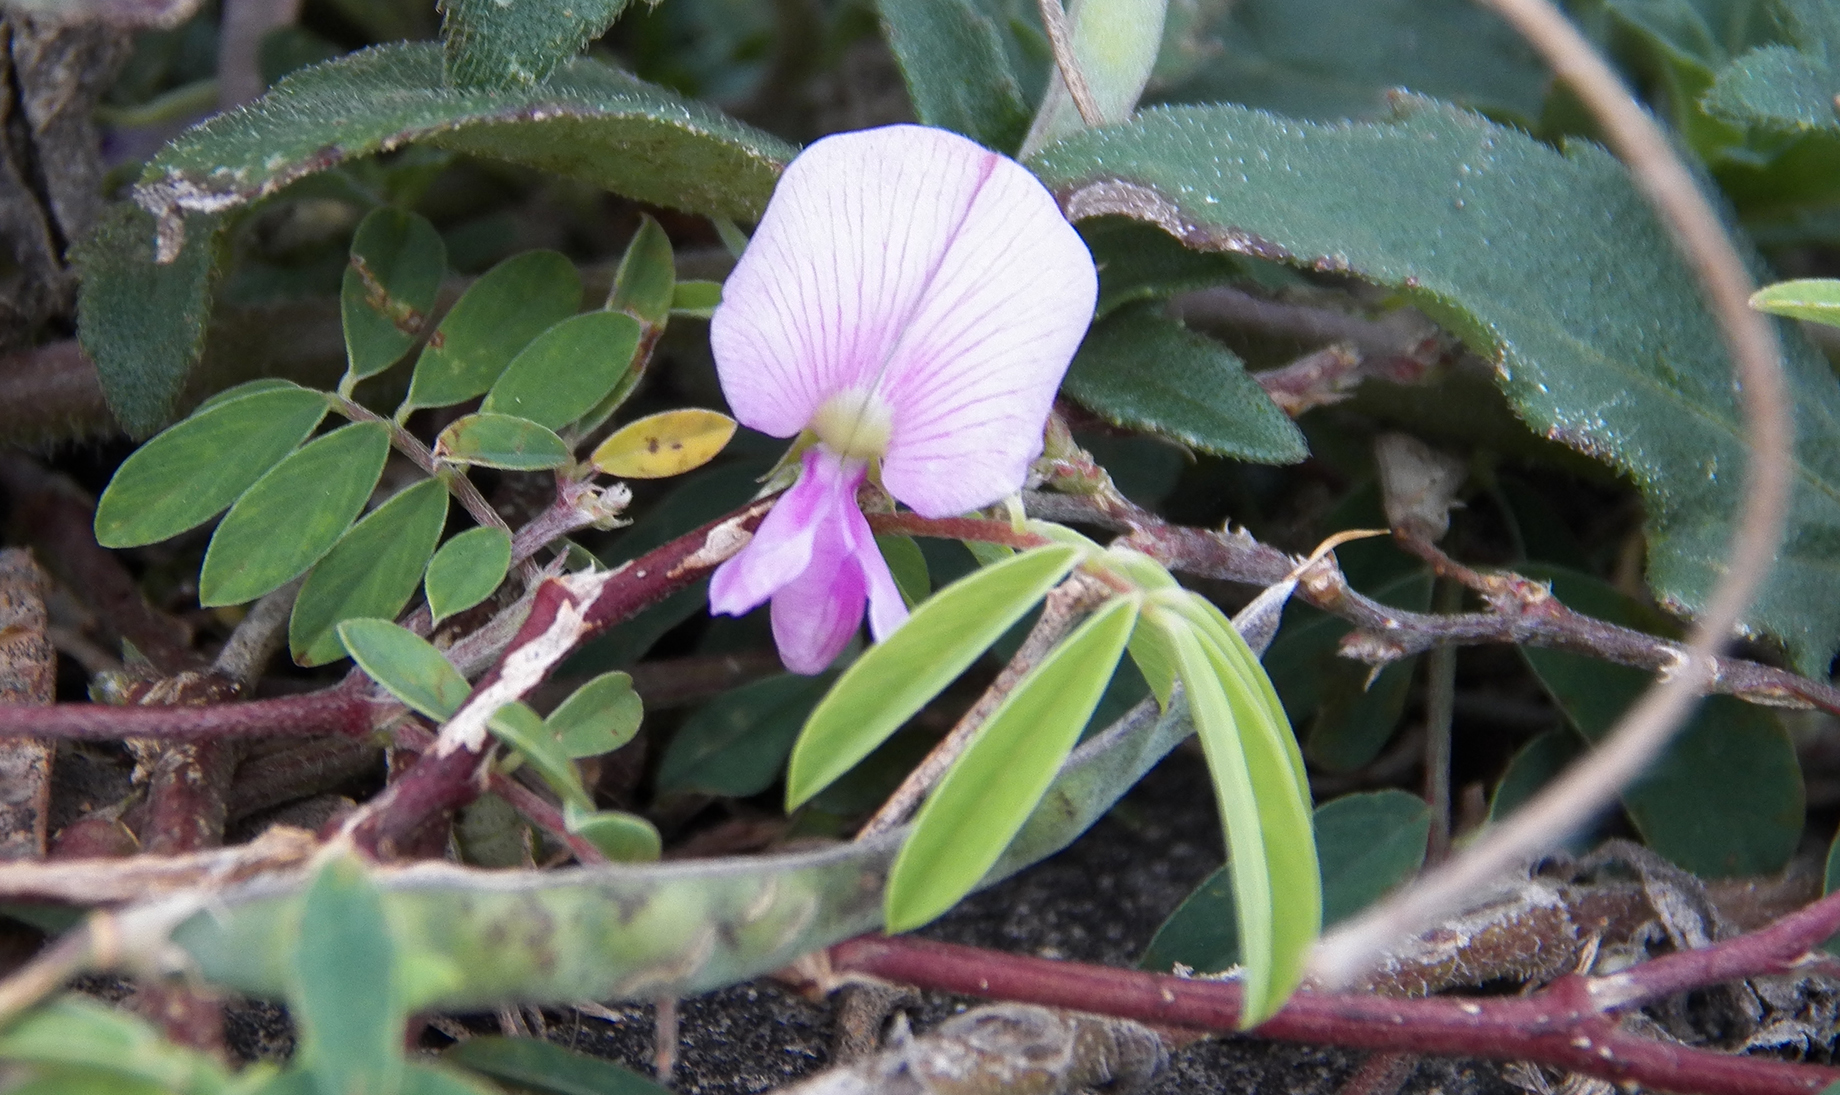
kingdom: Plantae
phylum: Tracheophyta
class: Magnoliopsida
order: Fabales
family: Fabaceae
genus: Tephrosia
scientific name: Tephrosia cinerea
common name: Ashen hoarypea
